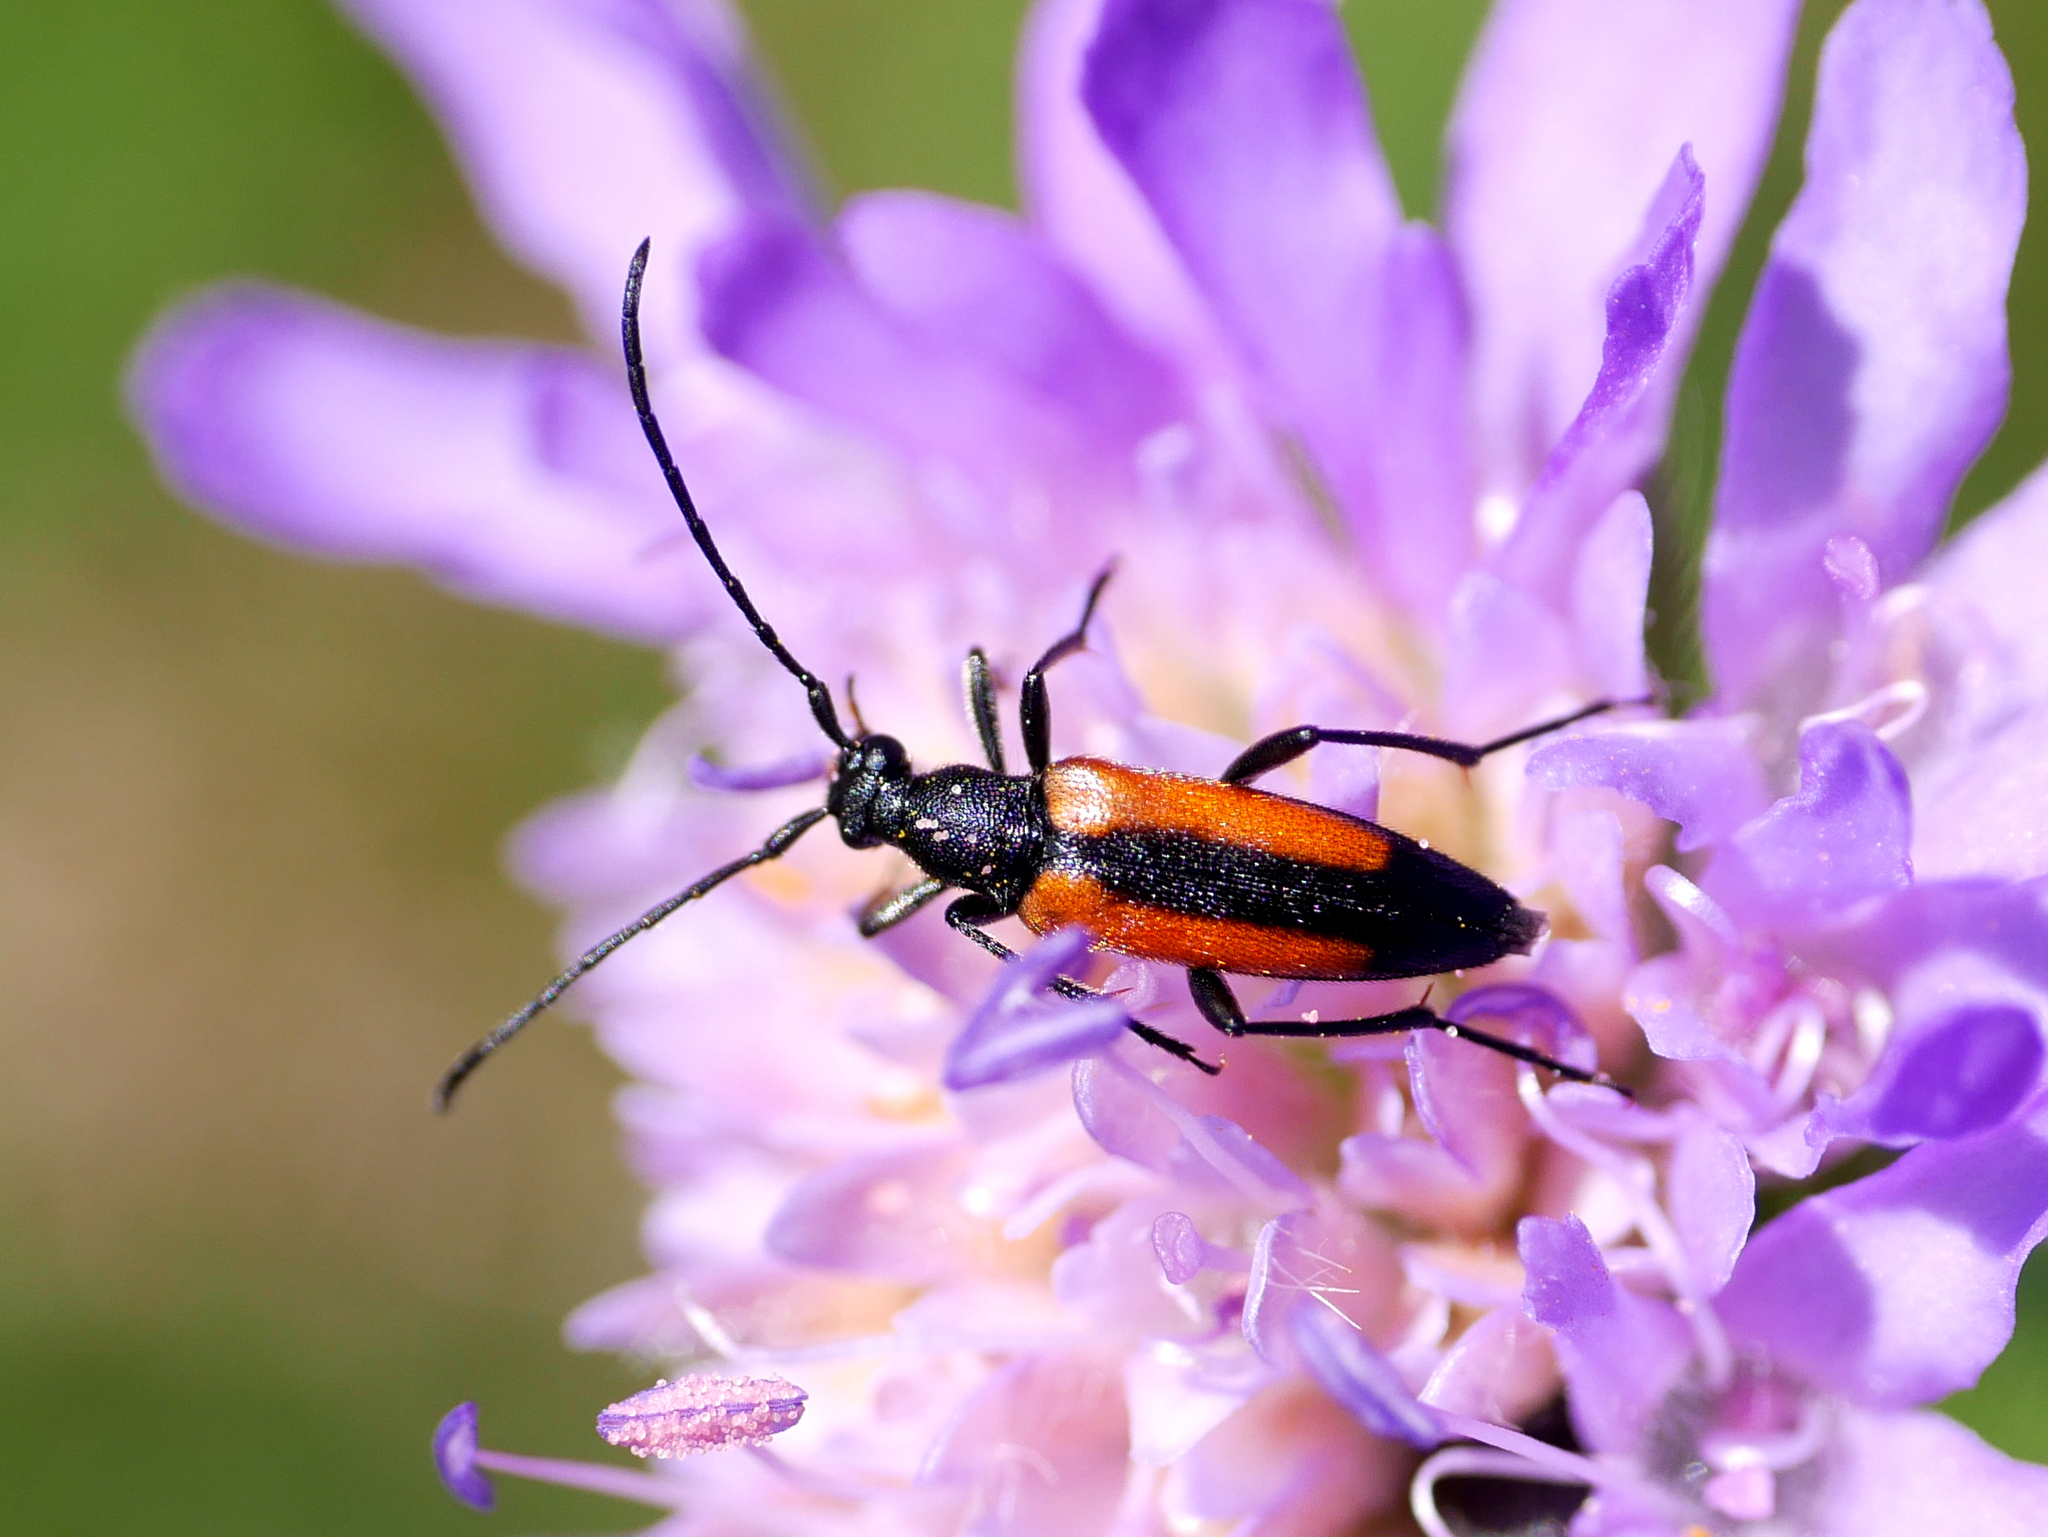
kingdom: Animalia
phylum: Arthropoda
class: Insecta
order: Coleoptera
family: Cerambycidae
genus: Stenurella
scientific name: Stenurella melanura
